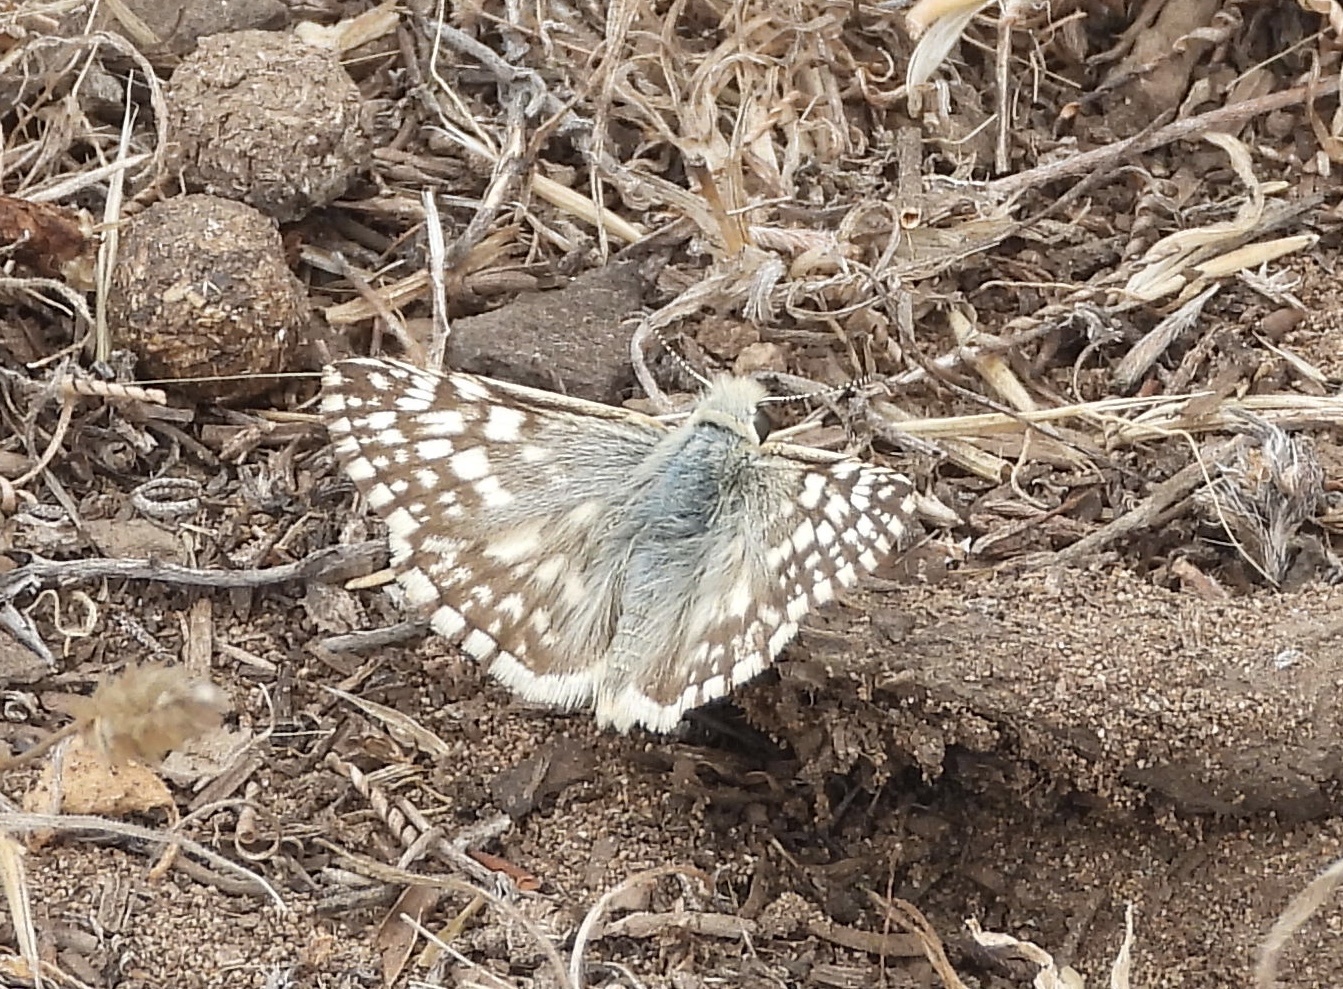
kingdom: Animalia
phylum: Arthropoda
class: Insecta
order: Lepidoptera
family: Hesperiidae
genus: Heliopetes
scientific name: Heliopetes americanus
